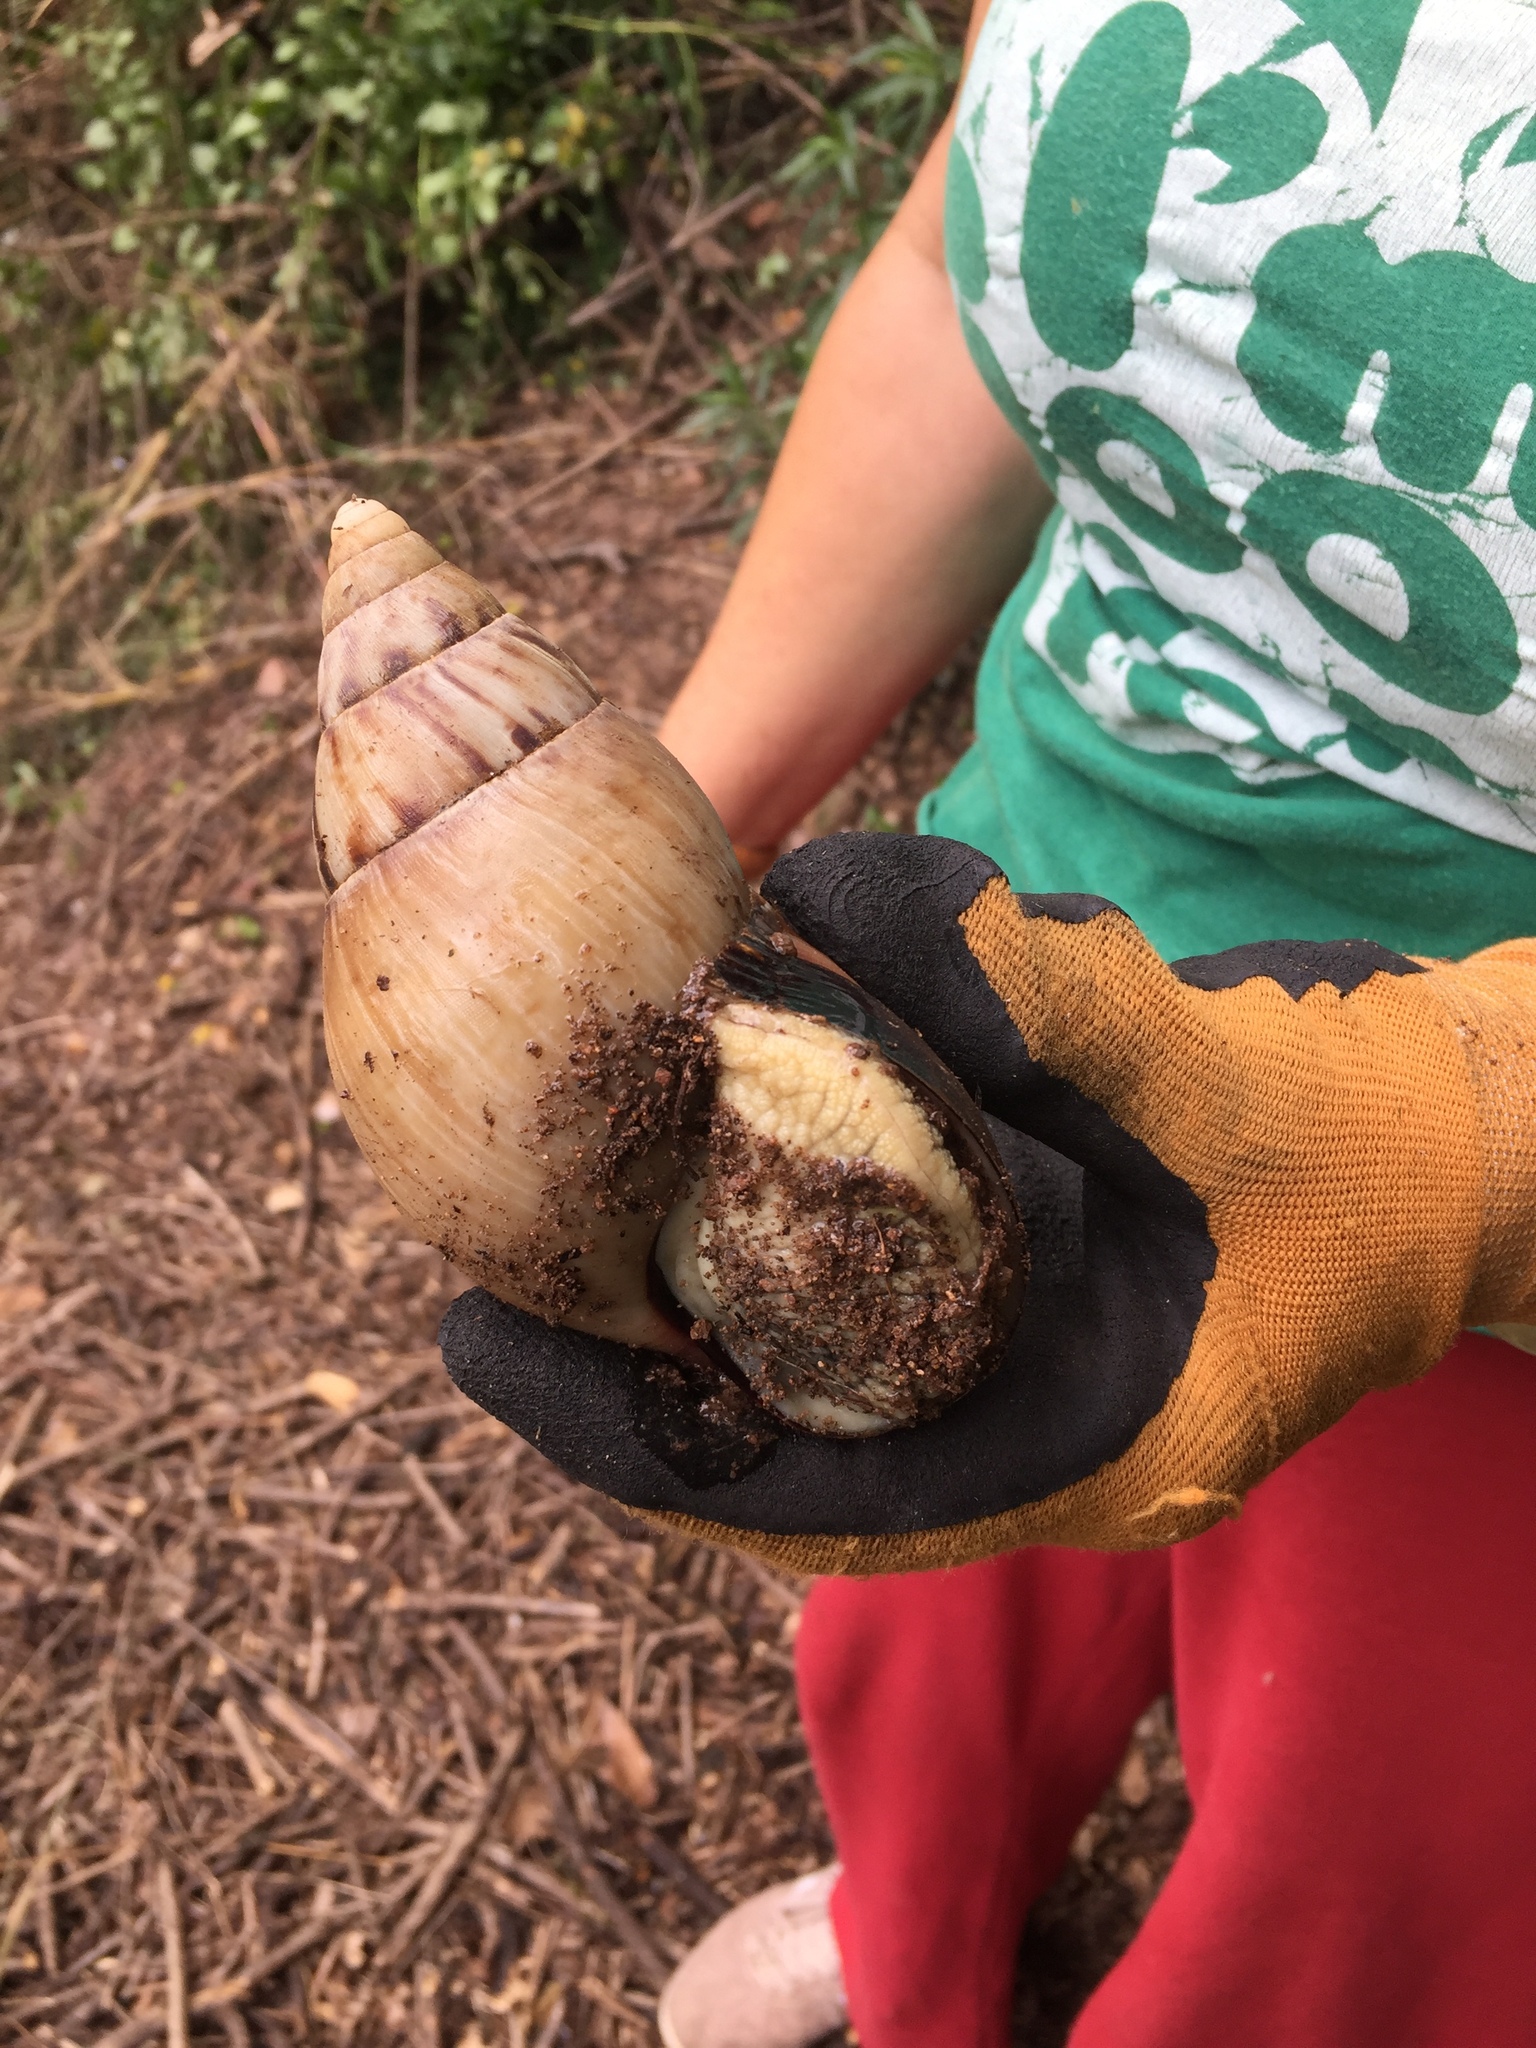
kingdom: Animalia
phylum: Mollusca
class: Gastropoda
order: Stylommatophora
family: Achatinidae
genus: Metachatina
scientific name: Metachatina kraussi
